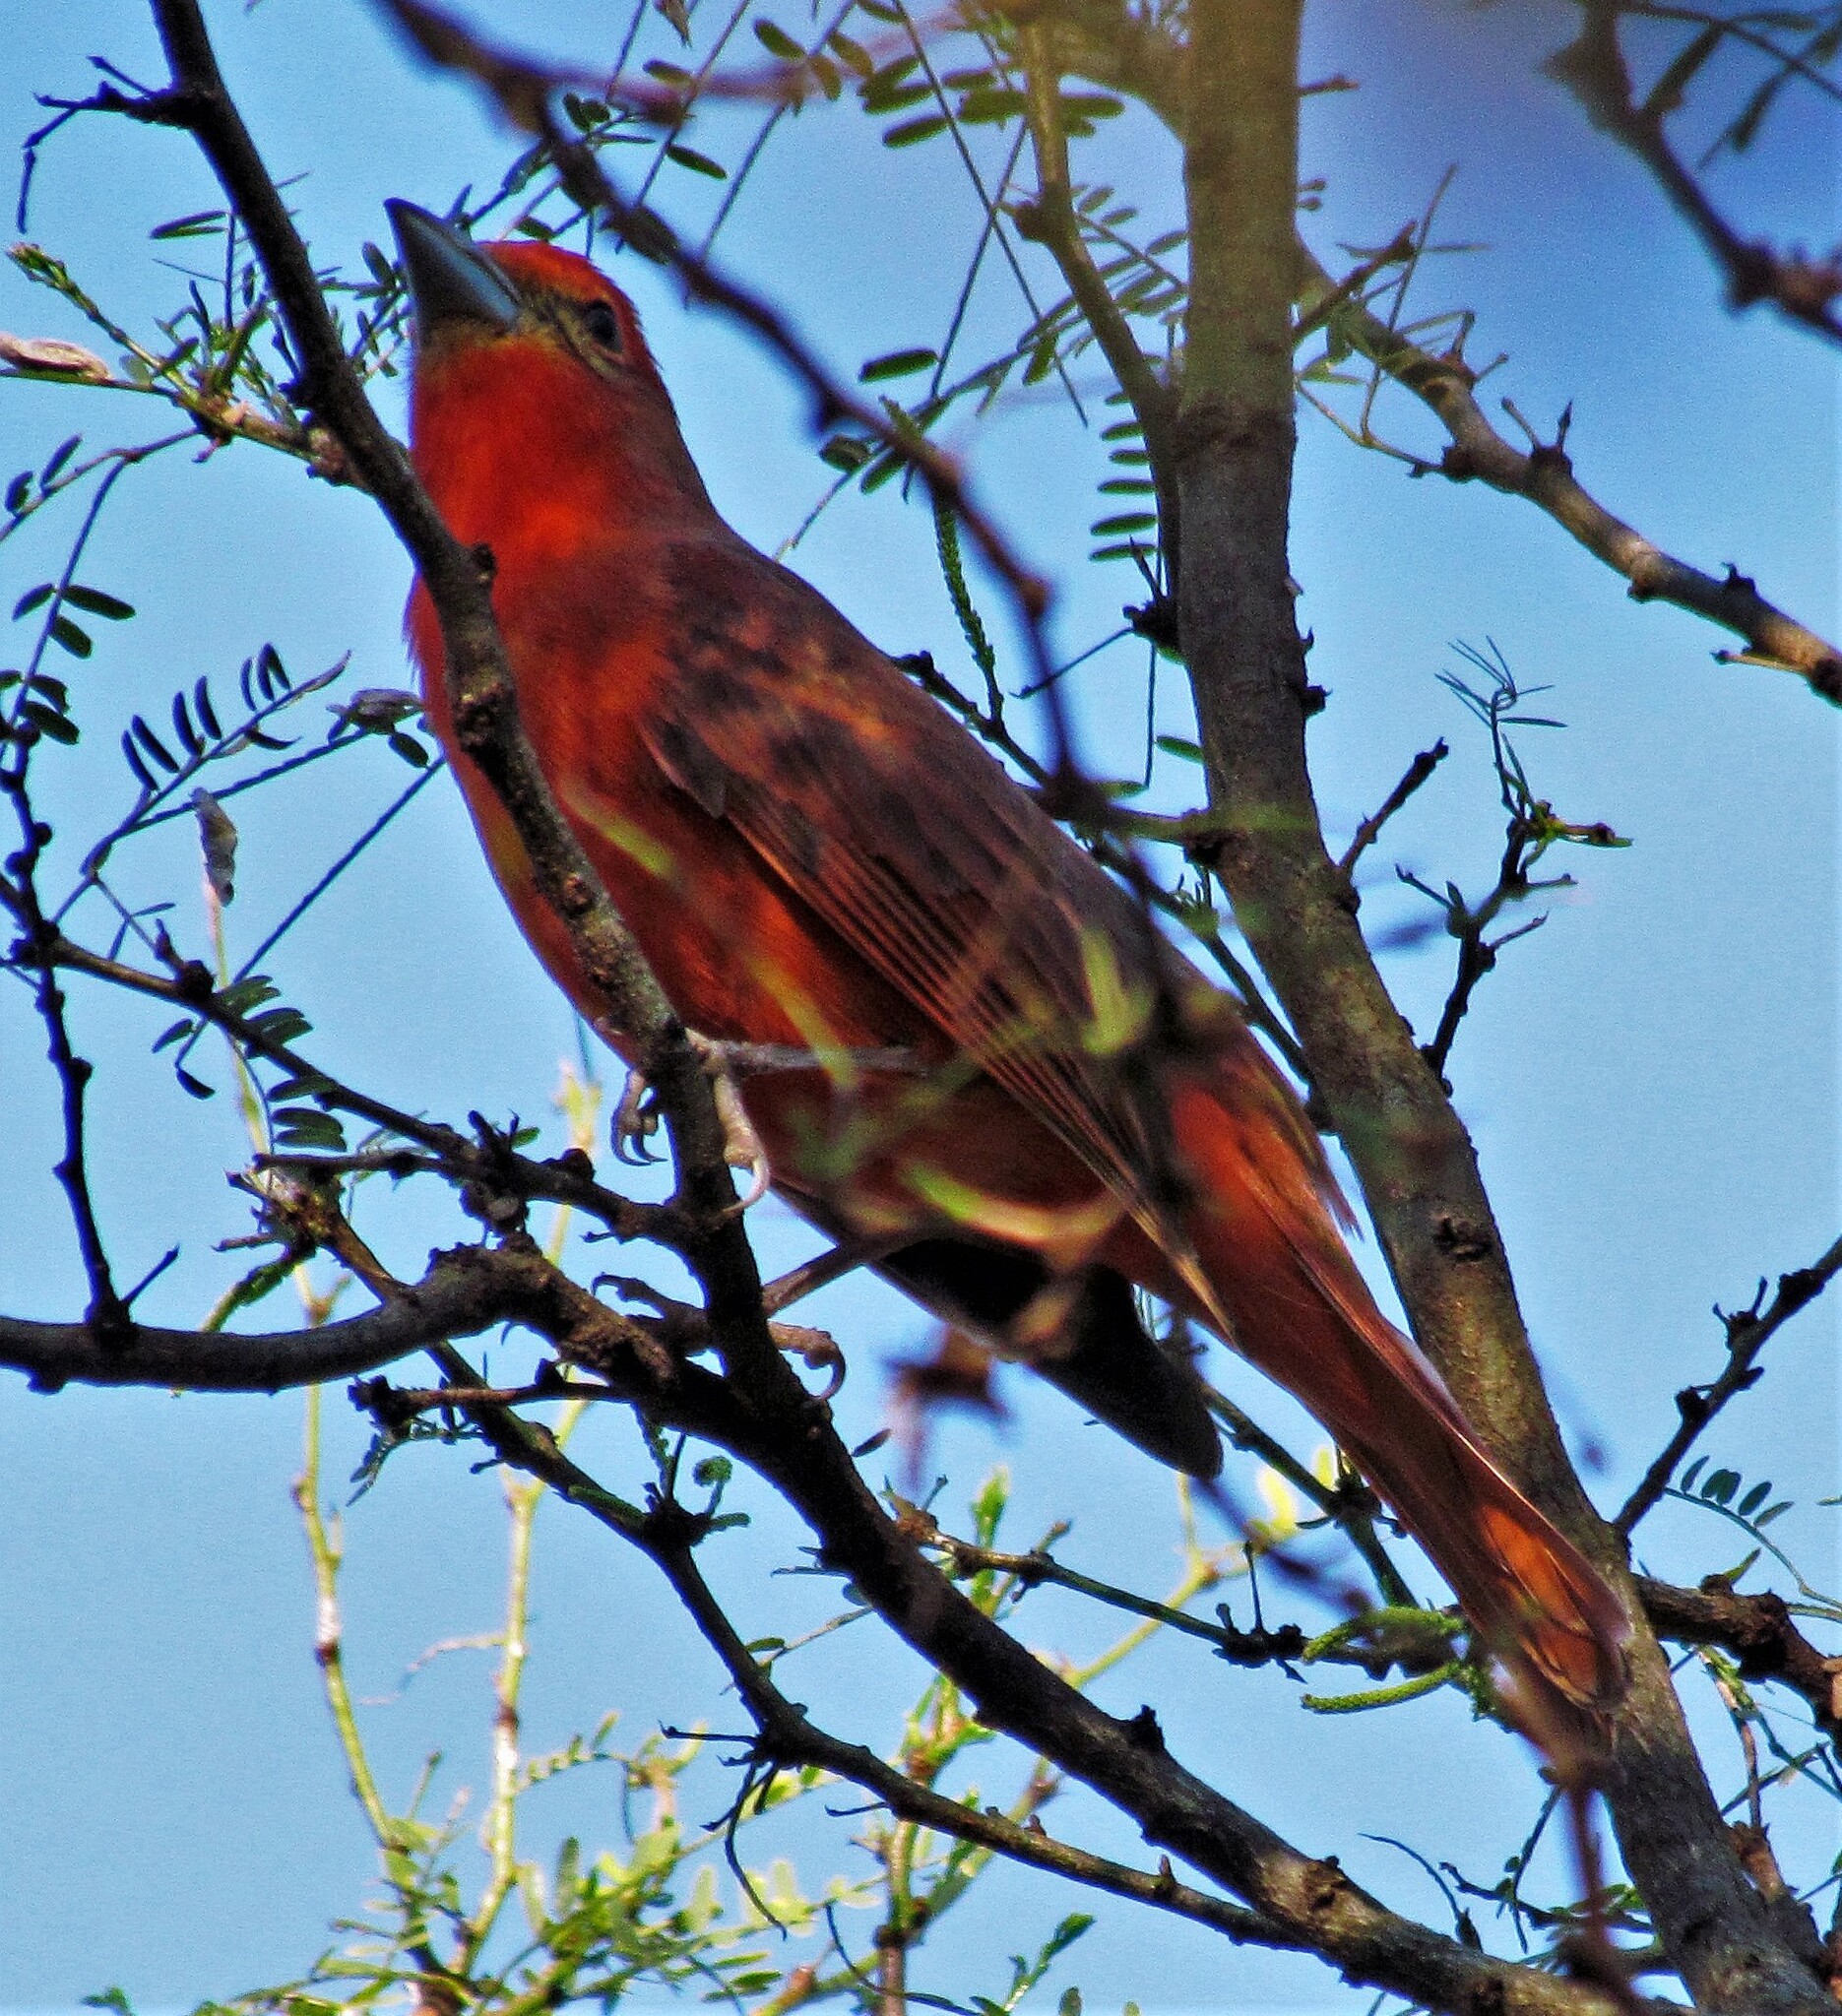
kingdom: Animalia
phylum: Chordata
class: Aves
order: Passeriformes
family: Cardinalidae
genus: Piranga
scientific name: Piranga flava
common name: Red tanager
